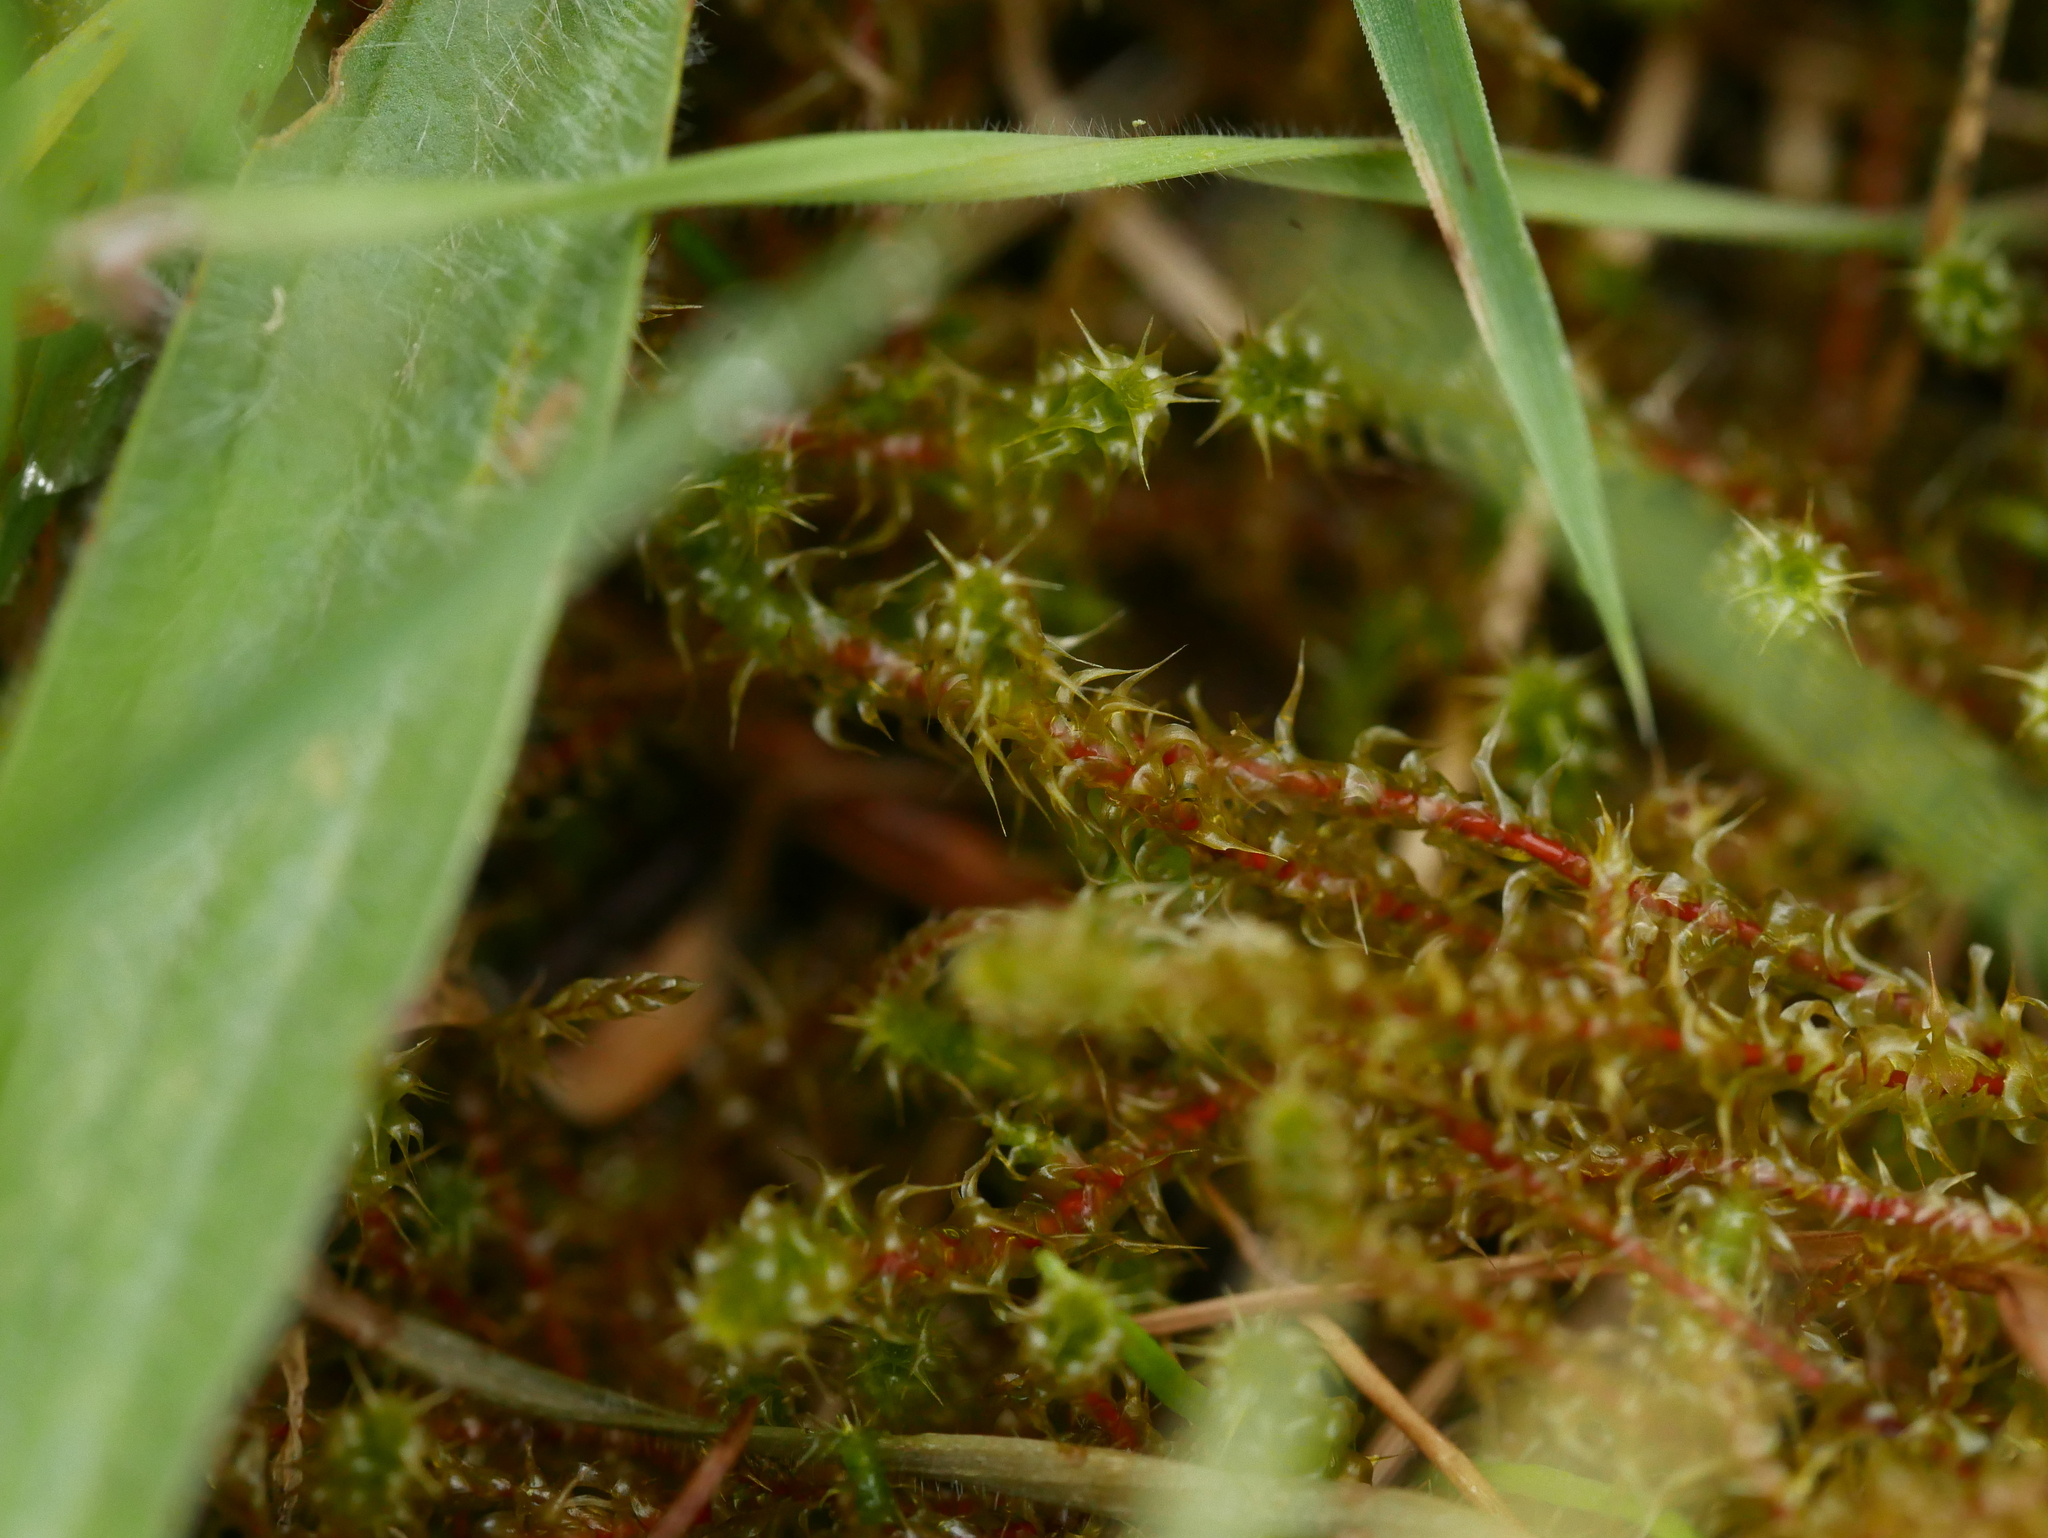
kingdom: Plantae
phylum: Bryophyta
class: Bryopsida
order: Hypnales
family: Hylocomiaceae
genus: Rhytidiadelphus
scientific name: Rhytidiadelphus squarrosus
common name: Springy turf-moss
